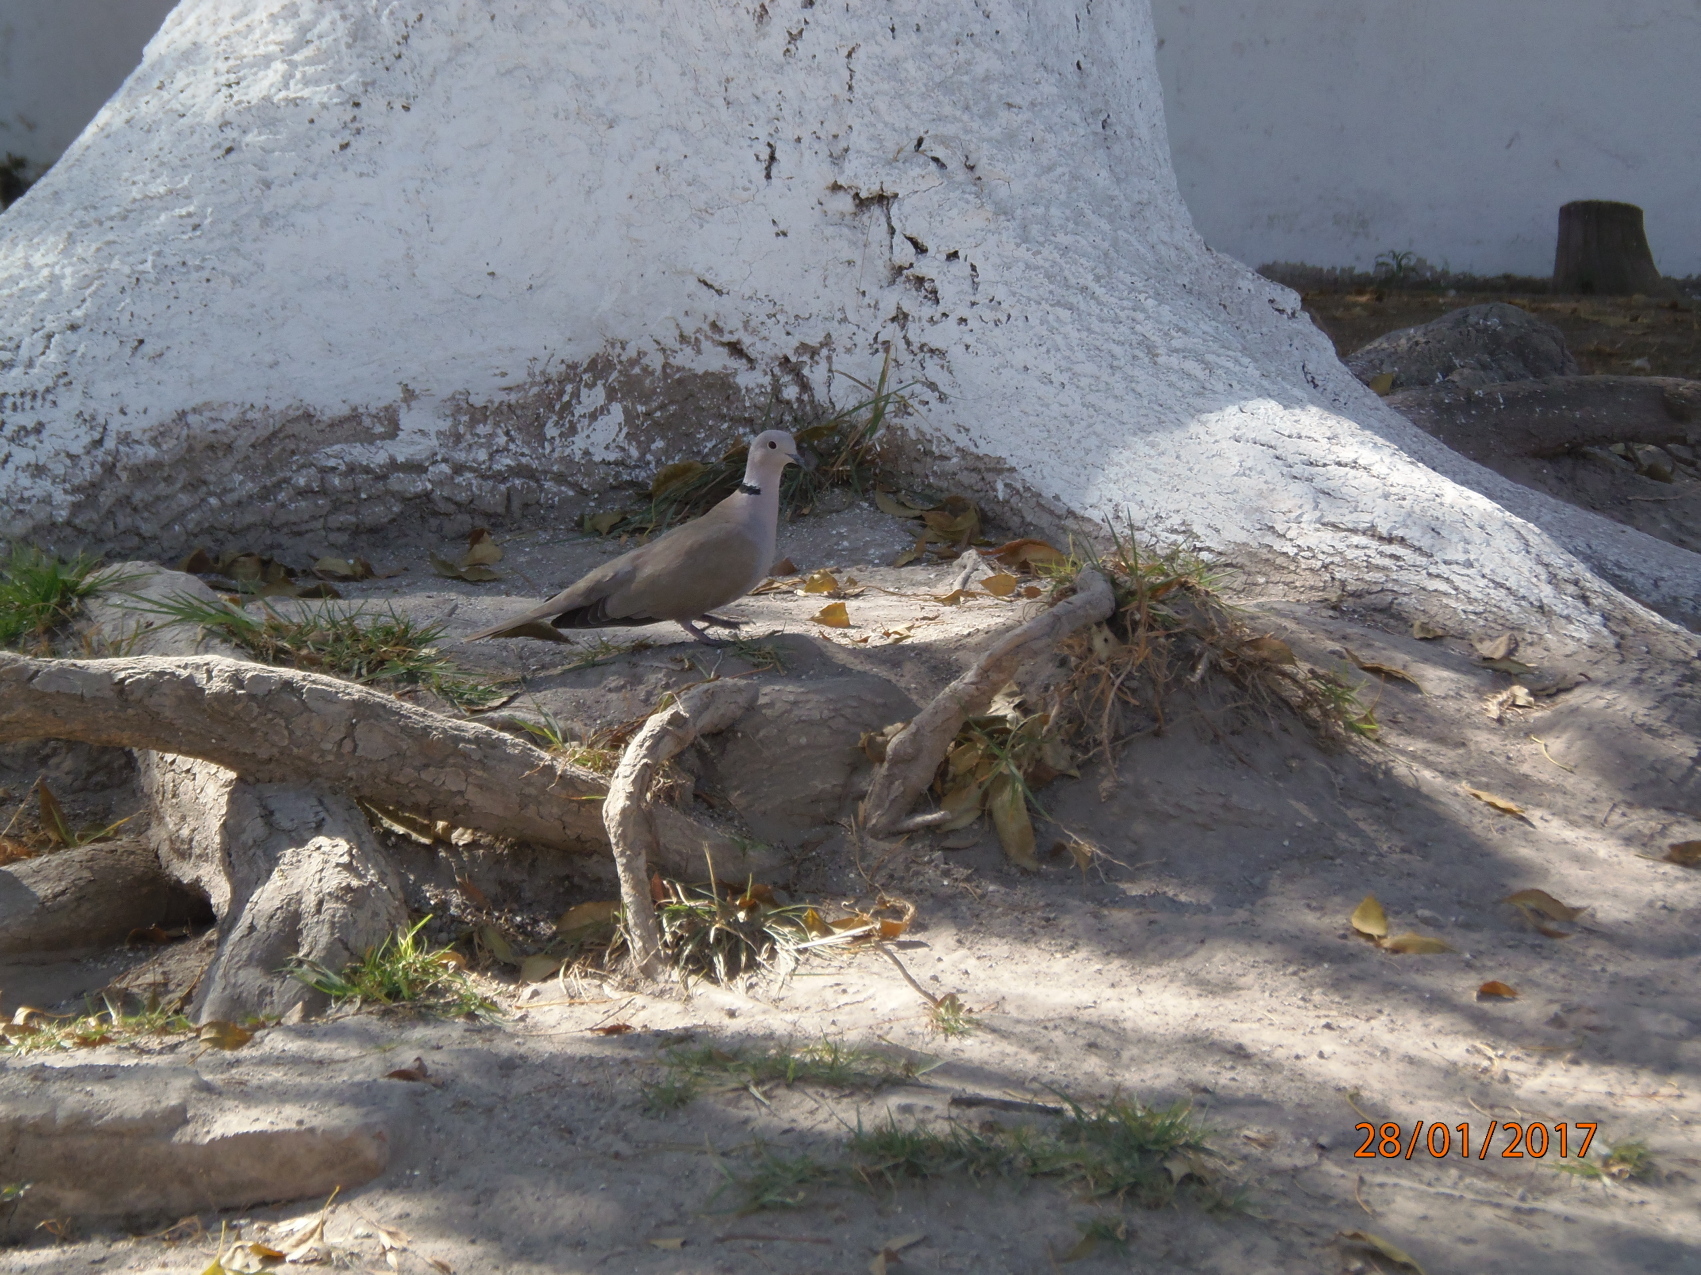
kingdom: Animalia
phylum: Chordata
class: Aves
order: Columbiformes
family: Columbidae
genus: Streptopelia
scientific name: Streptopelia decaocto
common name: Eurasian collared dove
